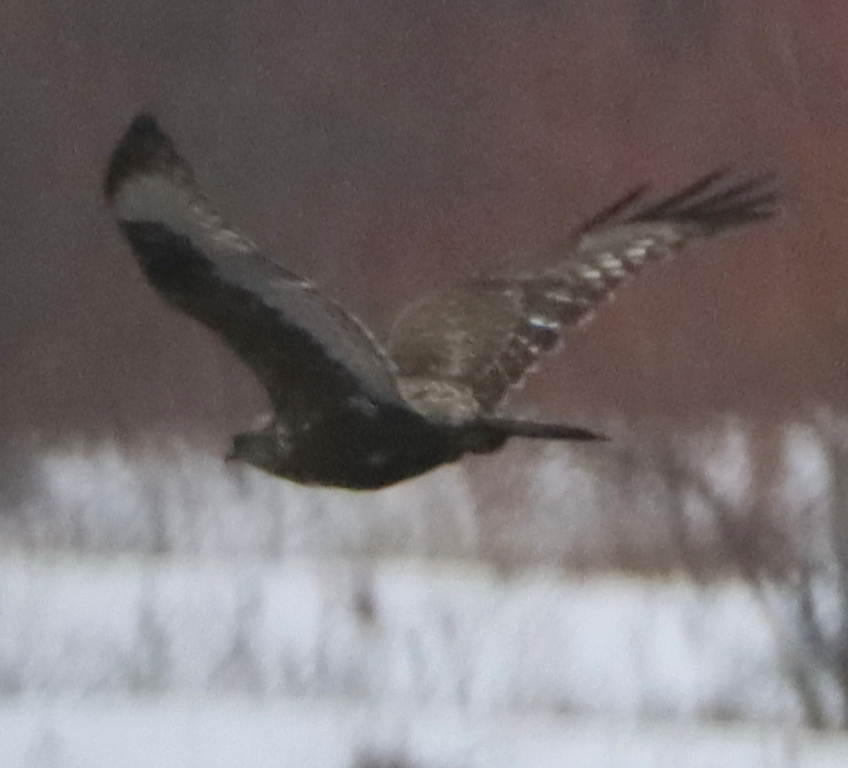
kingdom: Animalia
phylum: Chordata
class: Aves
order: Accipitriformes
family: Accipitridae
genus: Buteo
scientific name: Buteo lagopus
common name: Rough-legged buzzard
